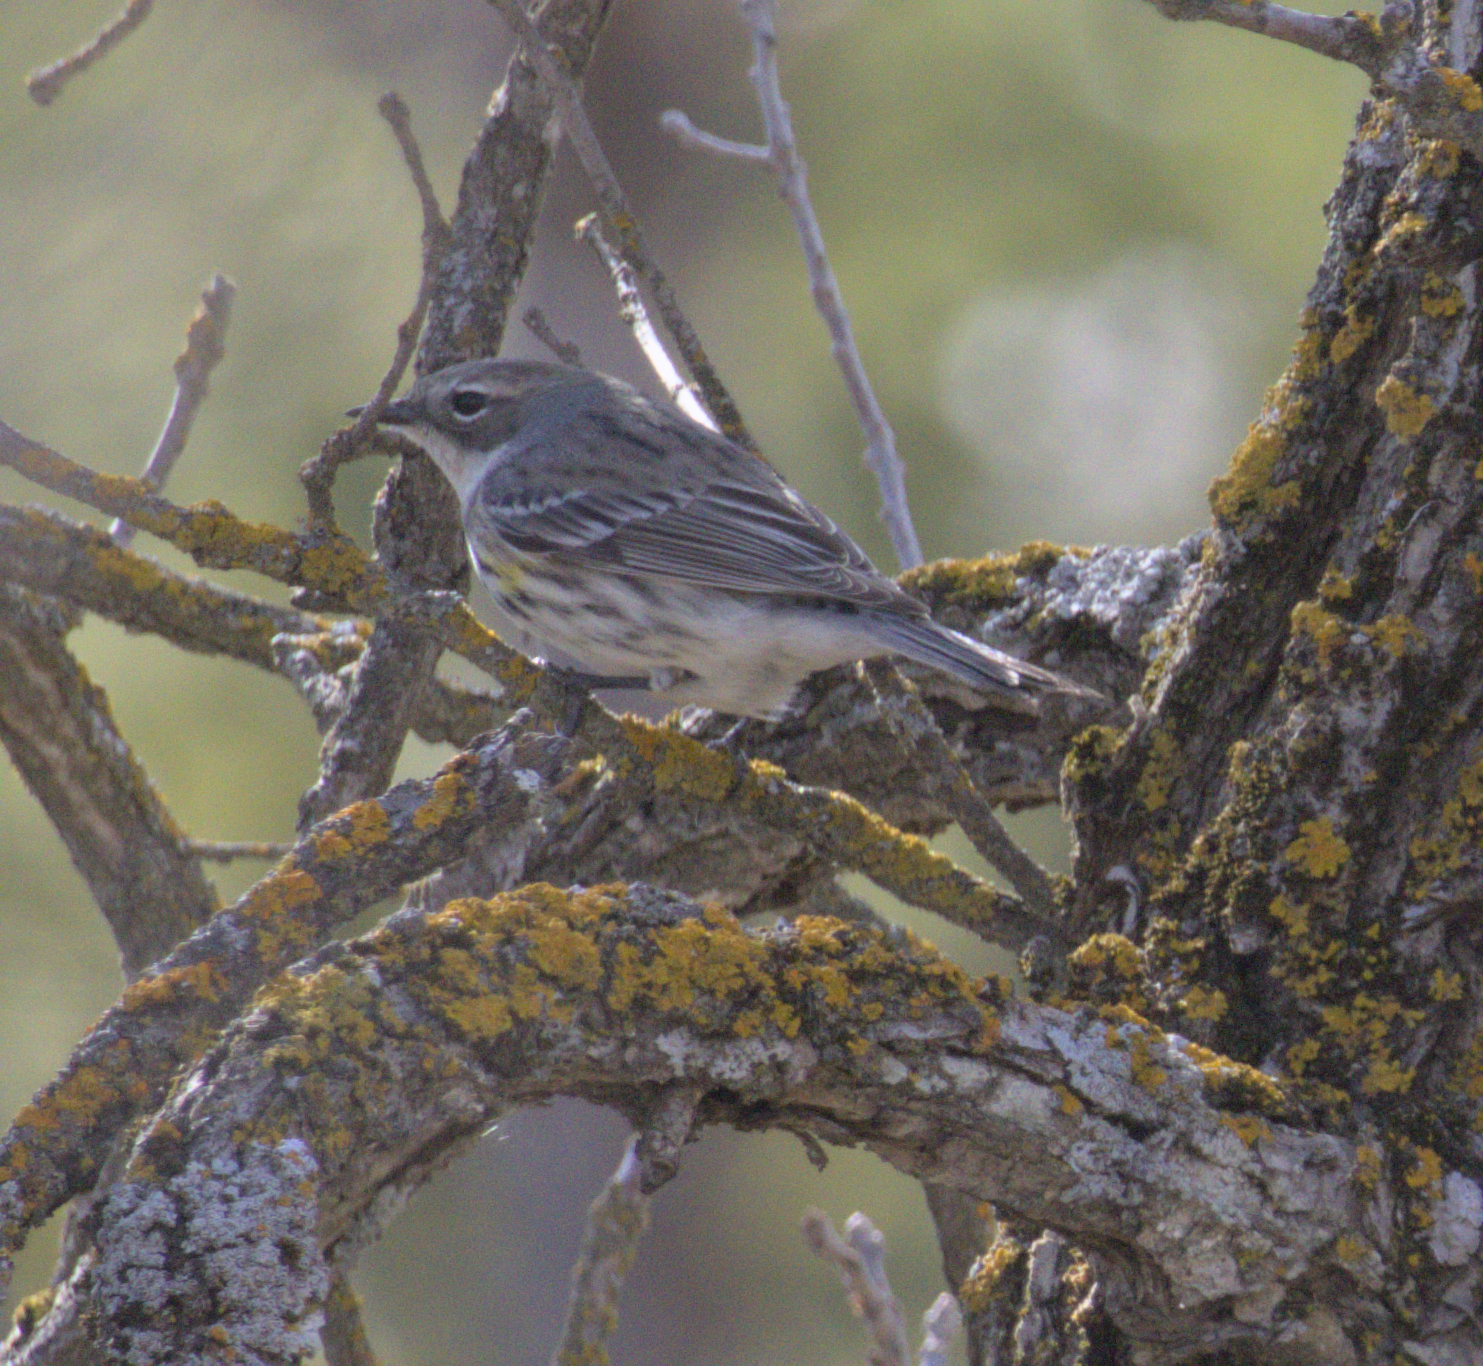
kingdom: Animalia
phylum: Chordata
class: Aves
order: Passeriformes
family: Parulidae
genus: Setophaga
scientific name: Setophaga coronata
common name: Myrtle warbler
